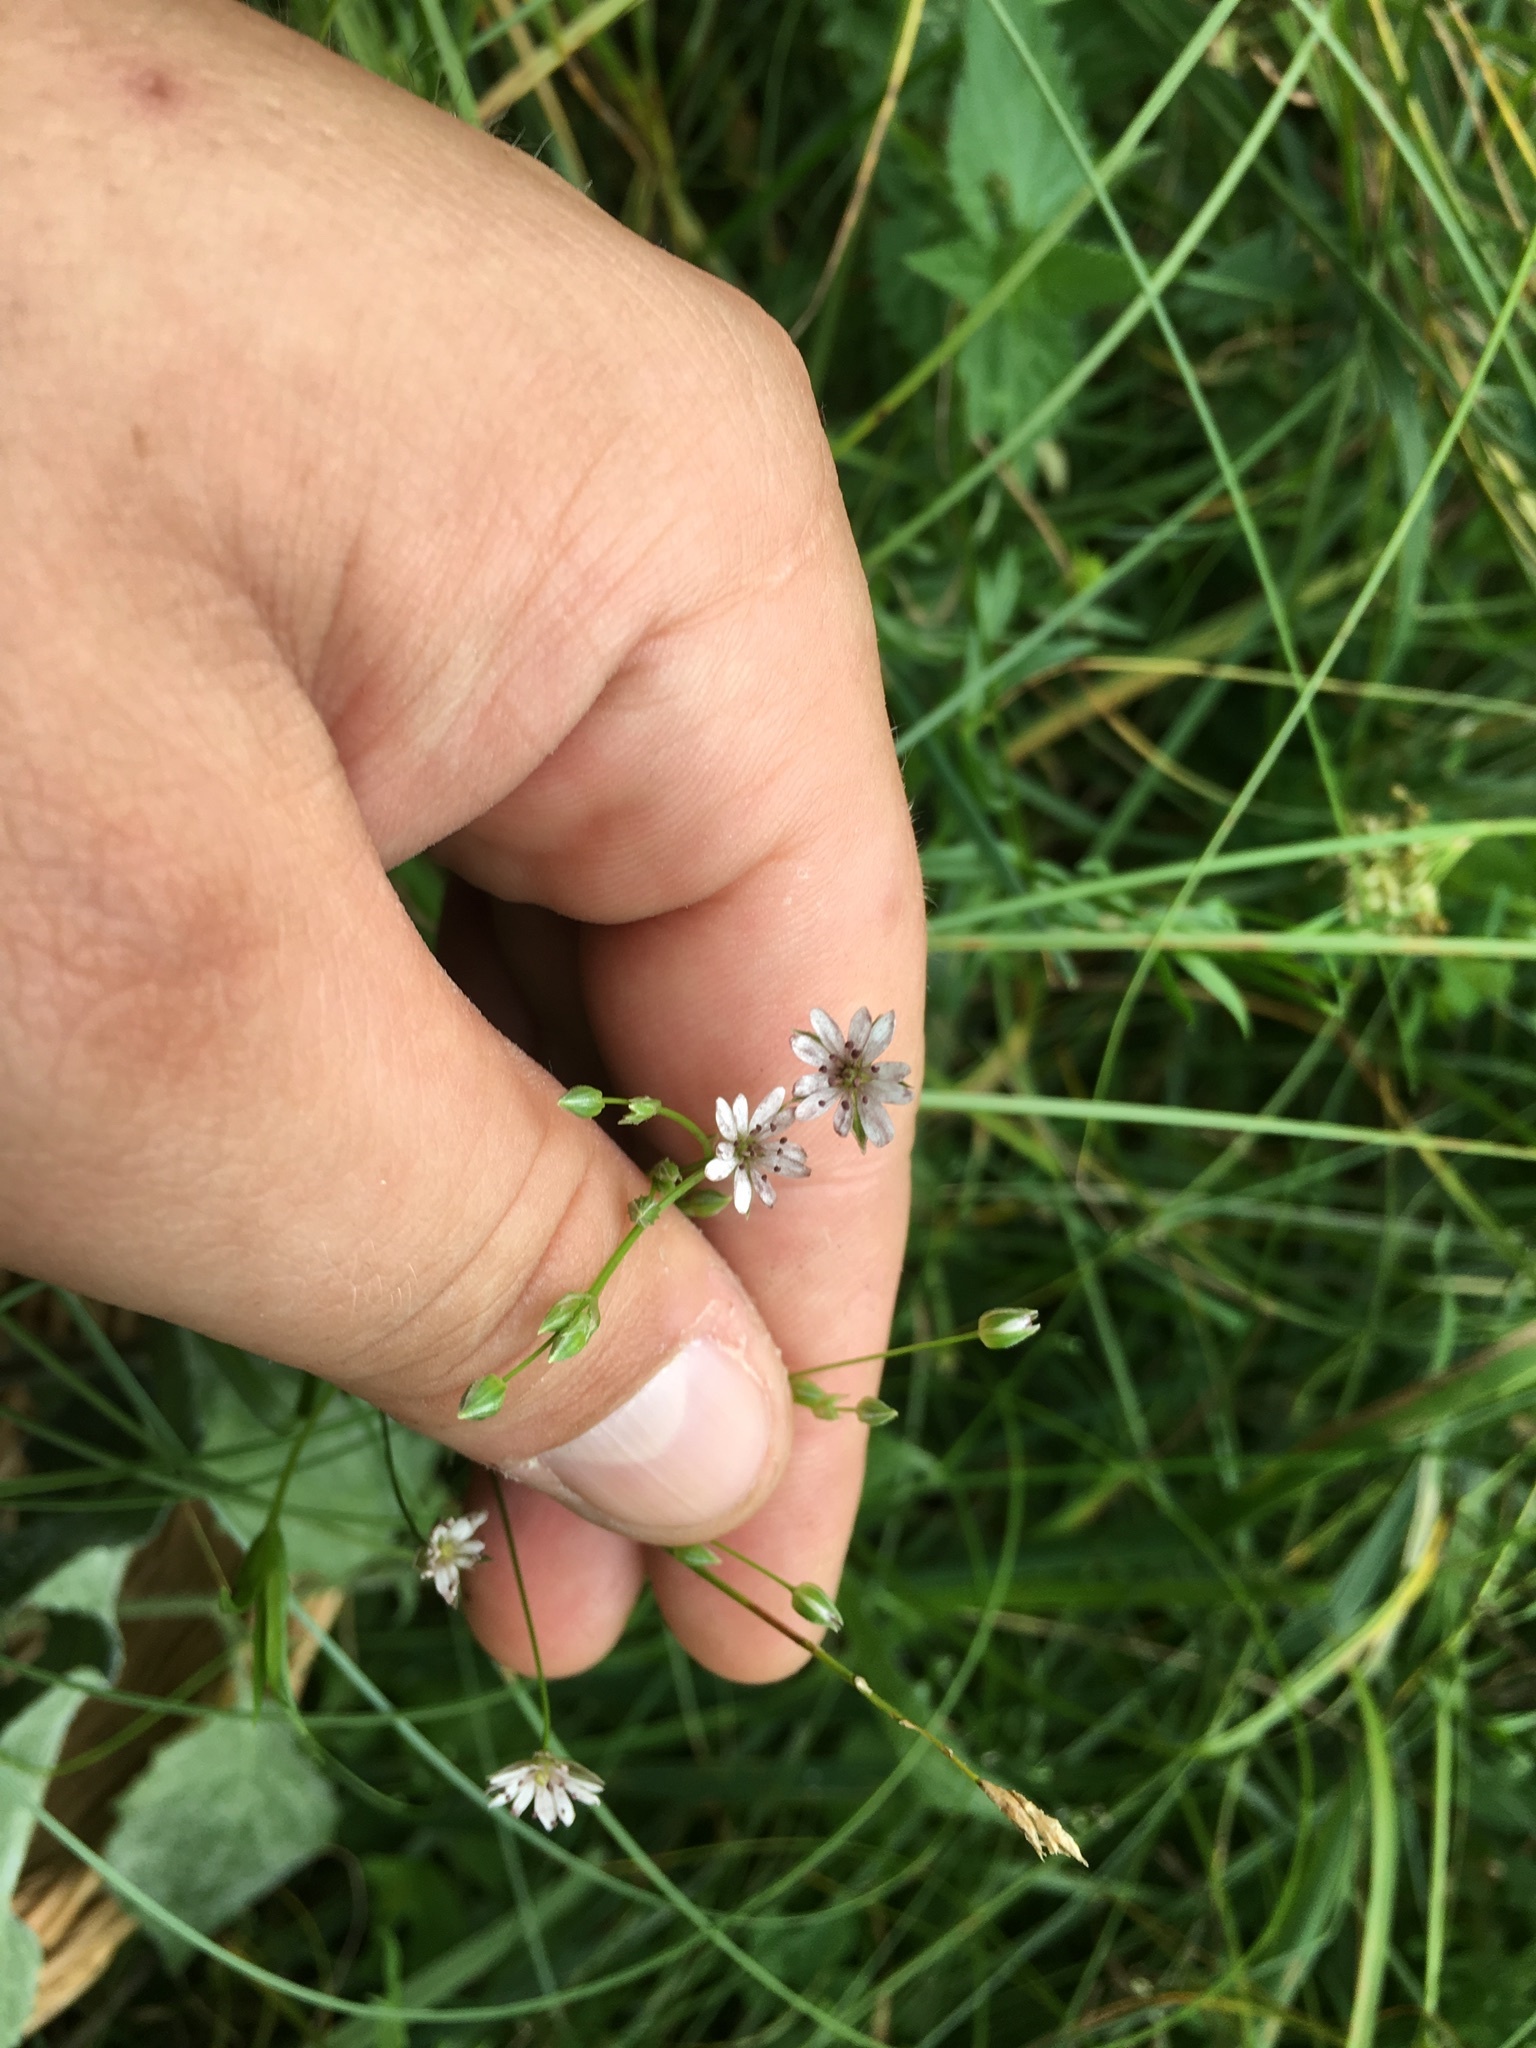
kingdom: Fungi
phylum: Basidiomycota
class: Microbotryomycetes
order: Microbotryales
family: Microbotryaceae
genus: Microbotryum
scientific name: Microbotryum stellariae
